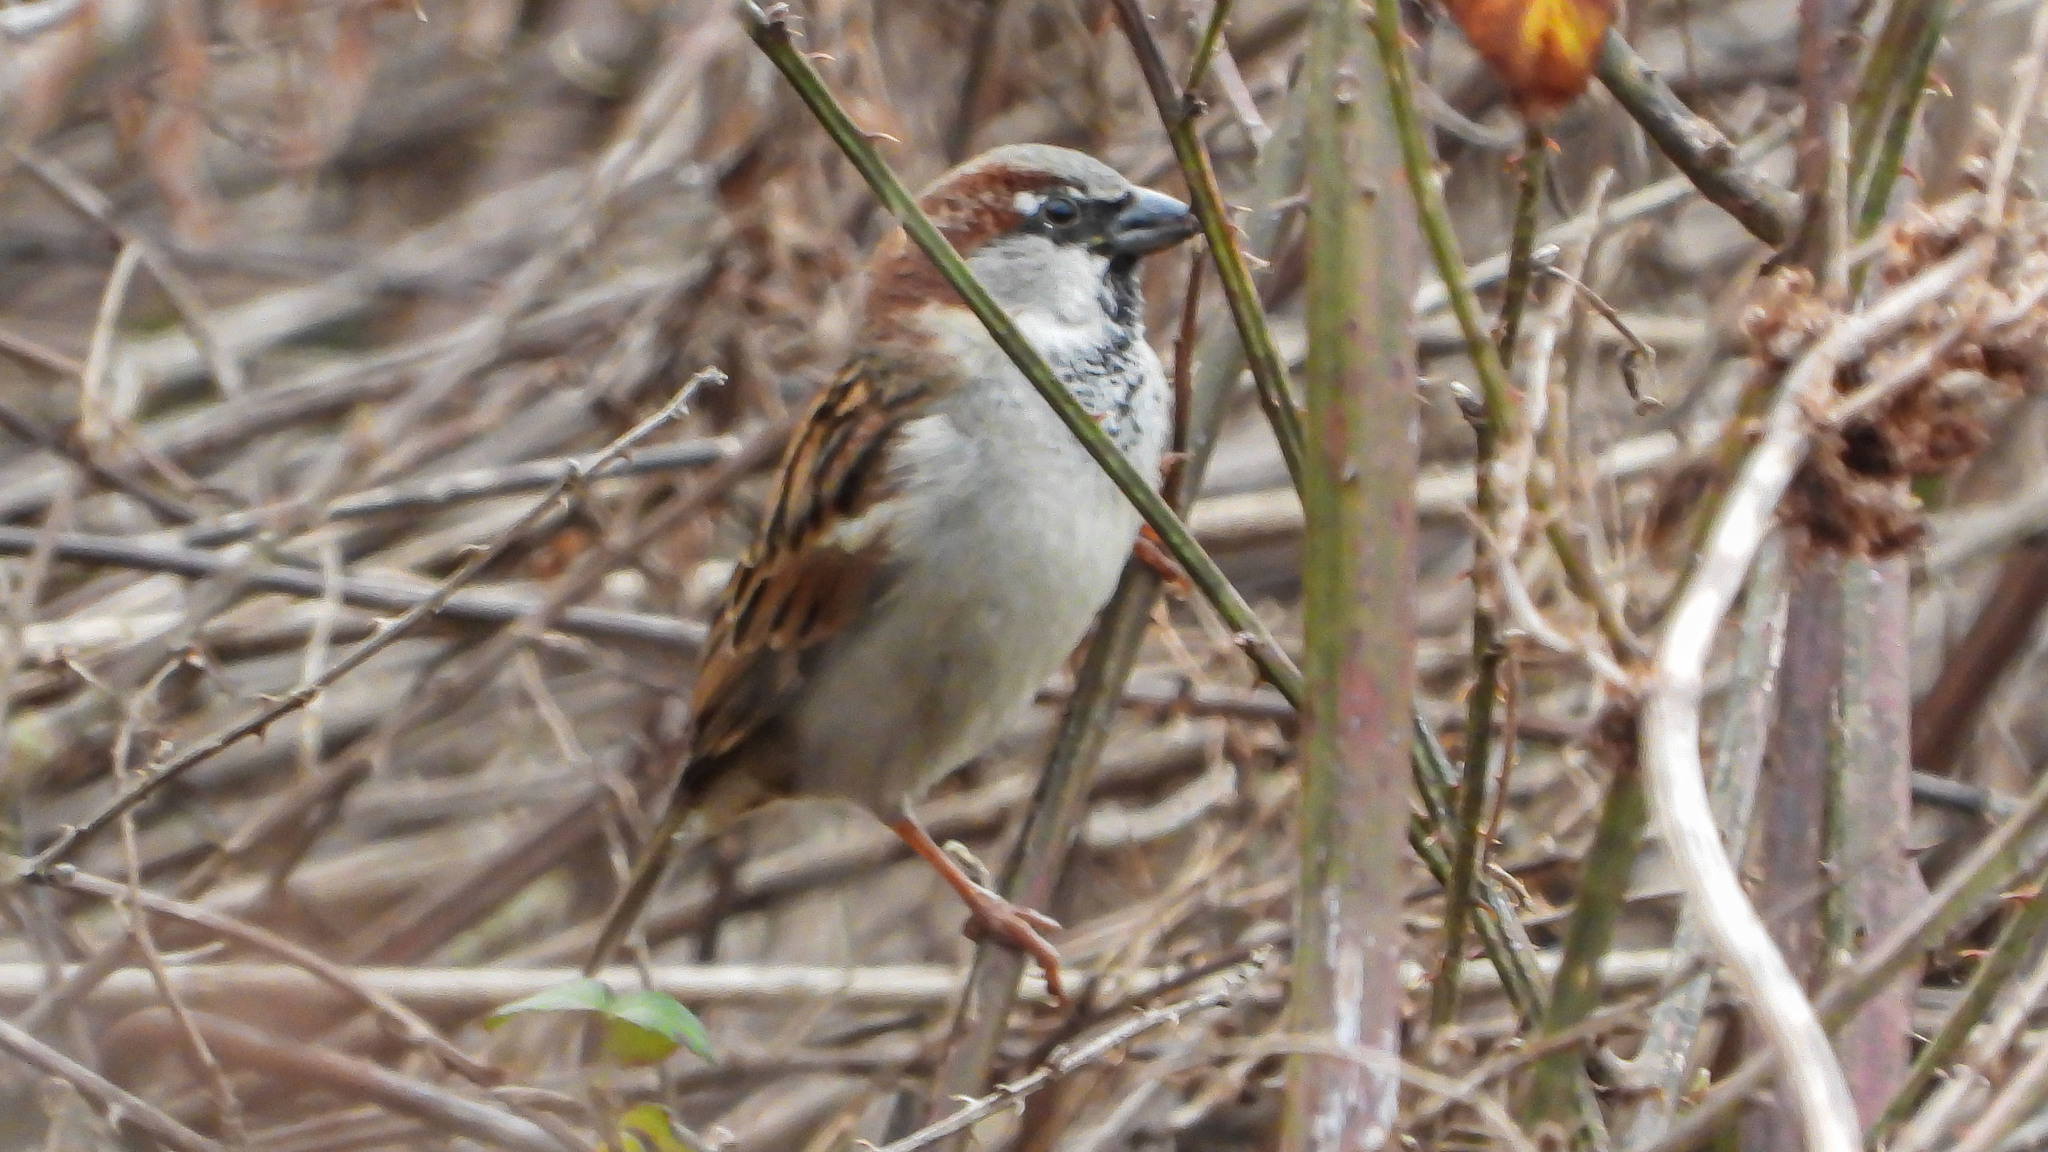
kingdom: Animalia
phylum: Chordata
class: Aves
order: Passeriformes
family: Passeridae
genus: Passer
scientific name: Passer domesticus
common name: House sparrow
